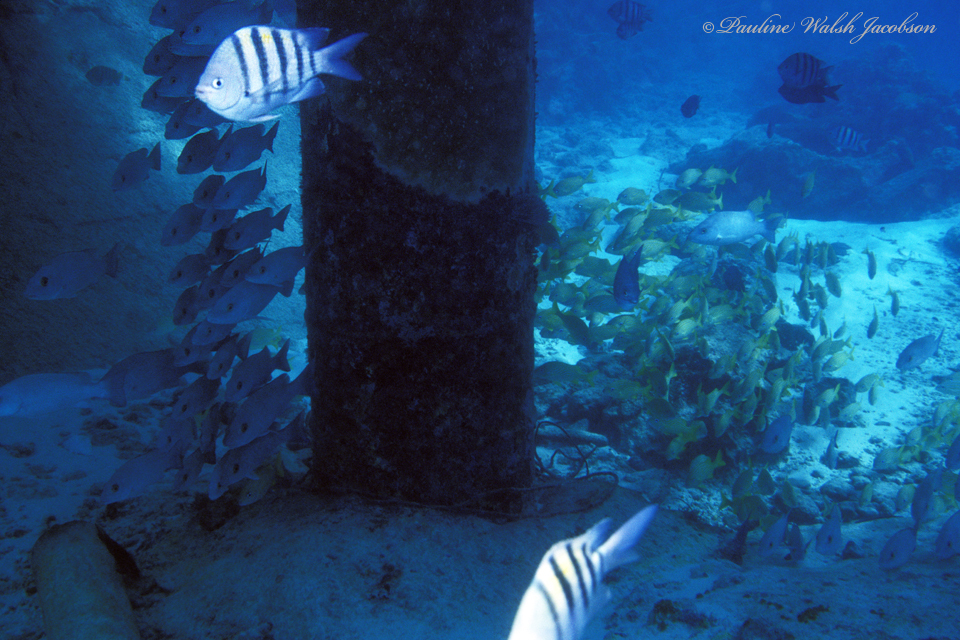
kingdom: Animalia
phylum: Chordata
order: Perciformes
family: Pomacentridae
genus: Abudefduf
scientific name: Abudefduf saxatilis
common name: Sergeant major
